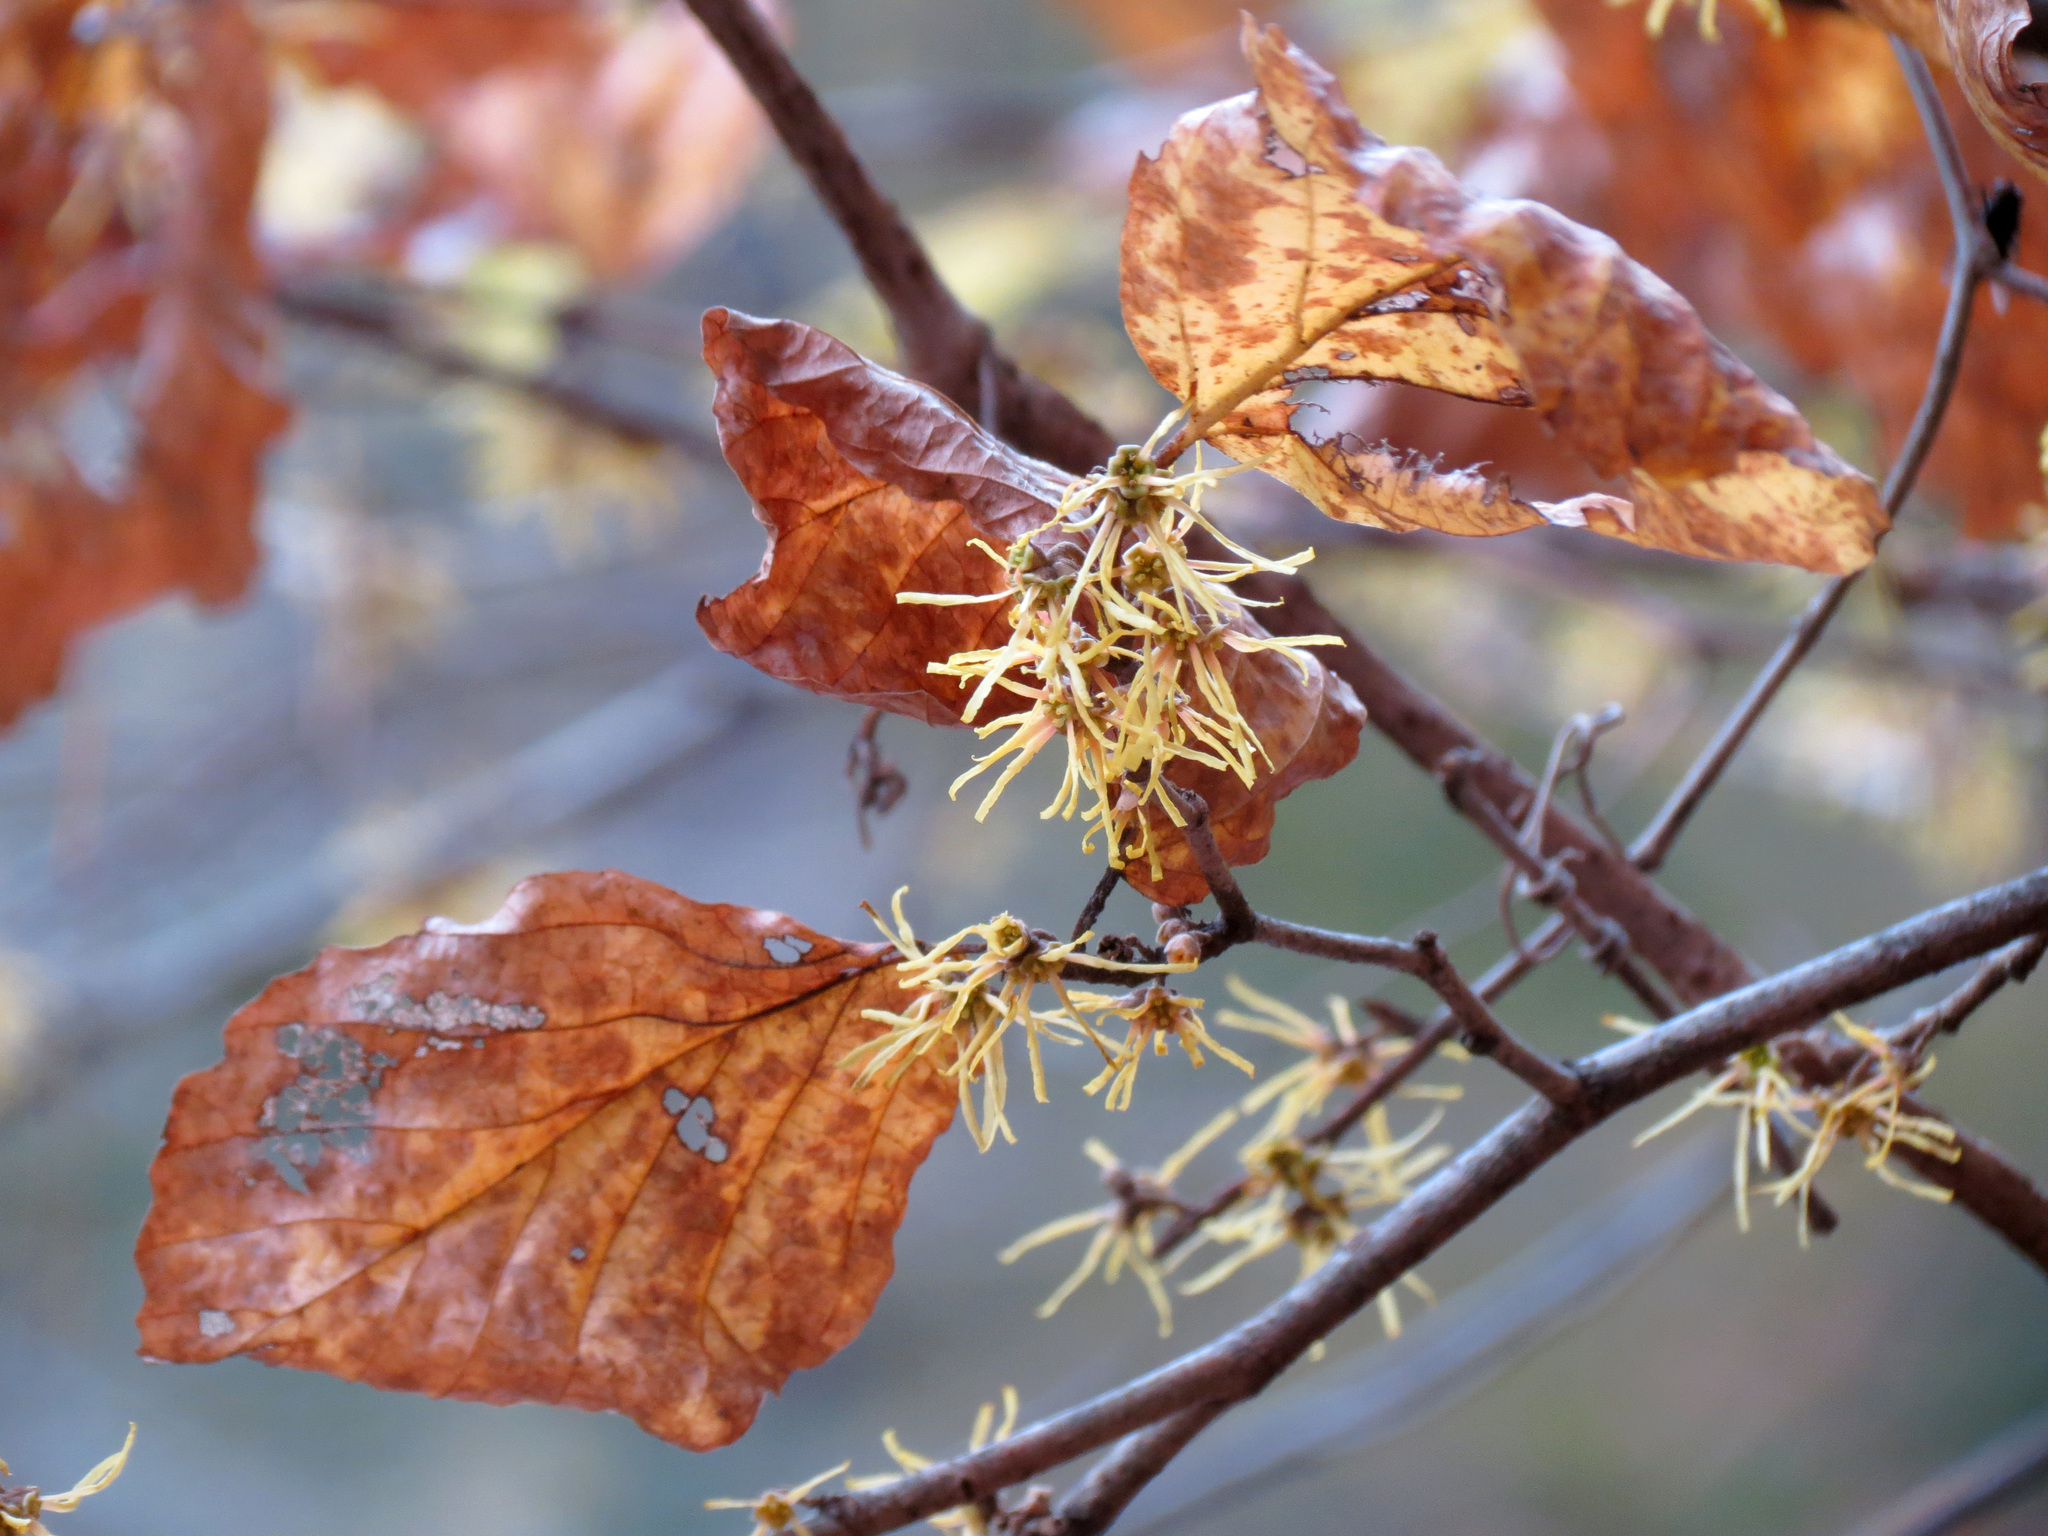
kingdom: Plantae
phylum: Tracheophyta
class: Magnoliopsida
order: Saxifragales
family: Hamamelidaceae
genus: Hamamelis
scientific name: Hamamelis virginiana
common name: Witch-hazel
